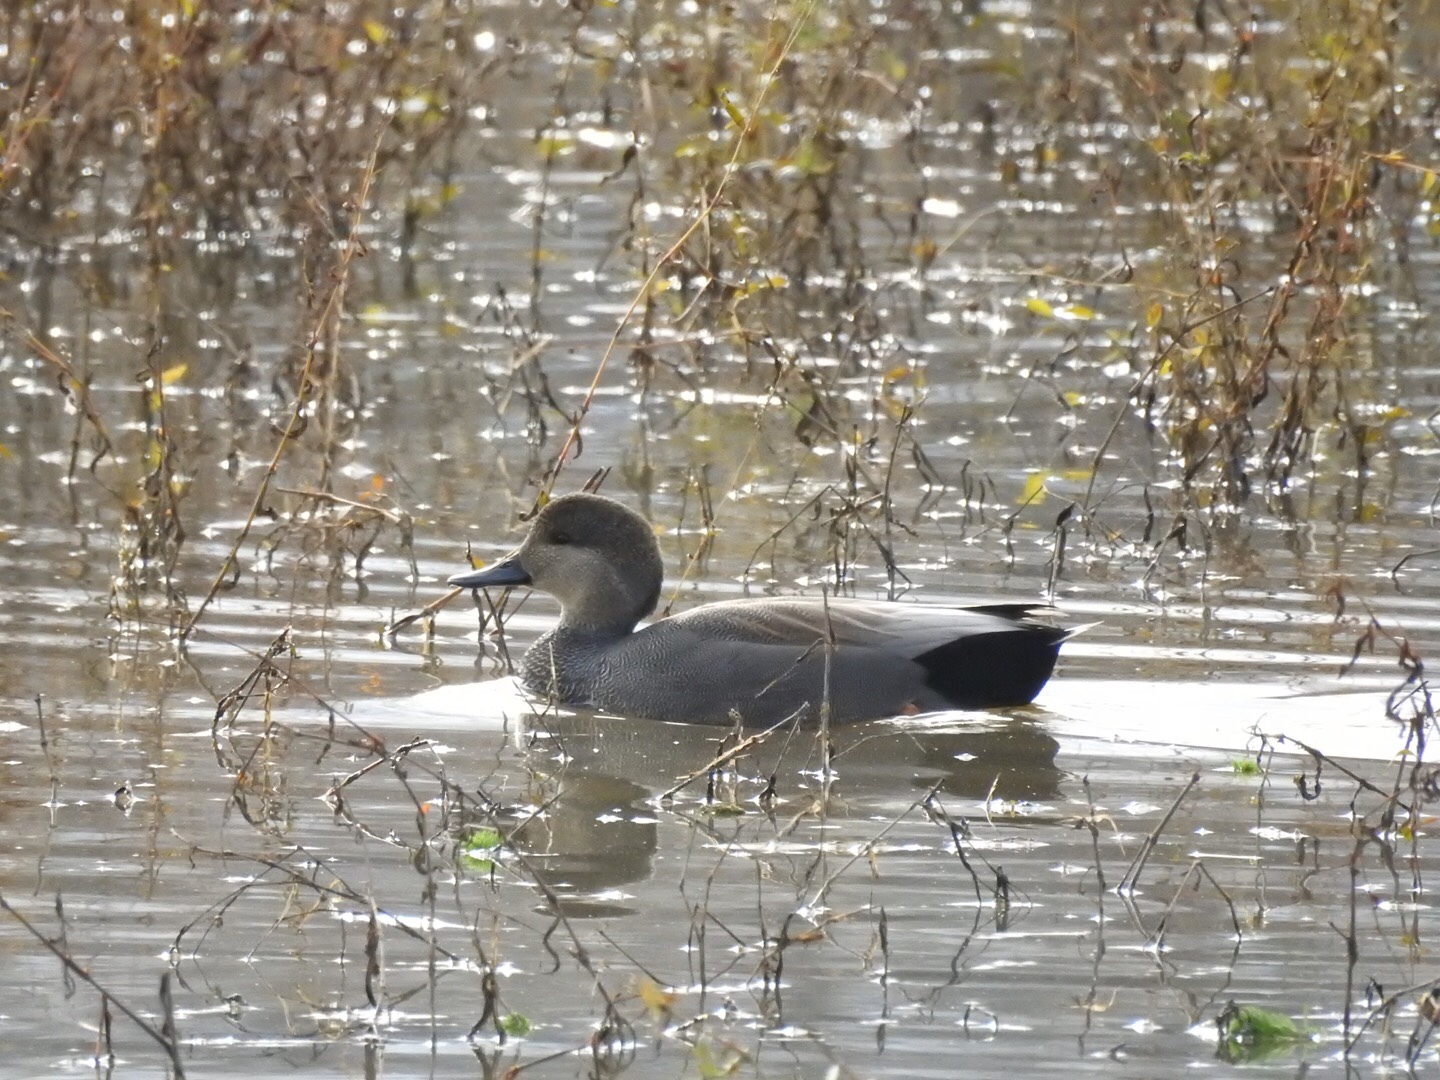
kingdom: Animalia
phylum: Chordata
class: Aves
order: Anseriformes
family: Anatidae
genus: Mareca
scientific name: Mareca strepera
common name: Gadwall
